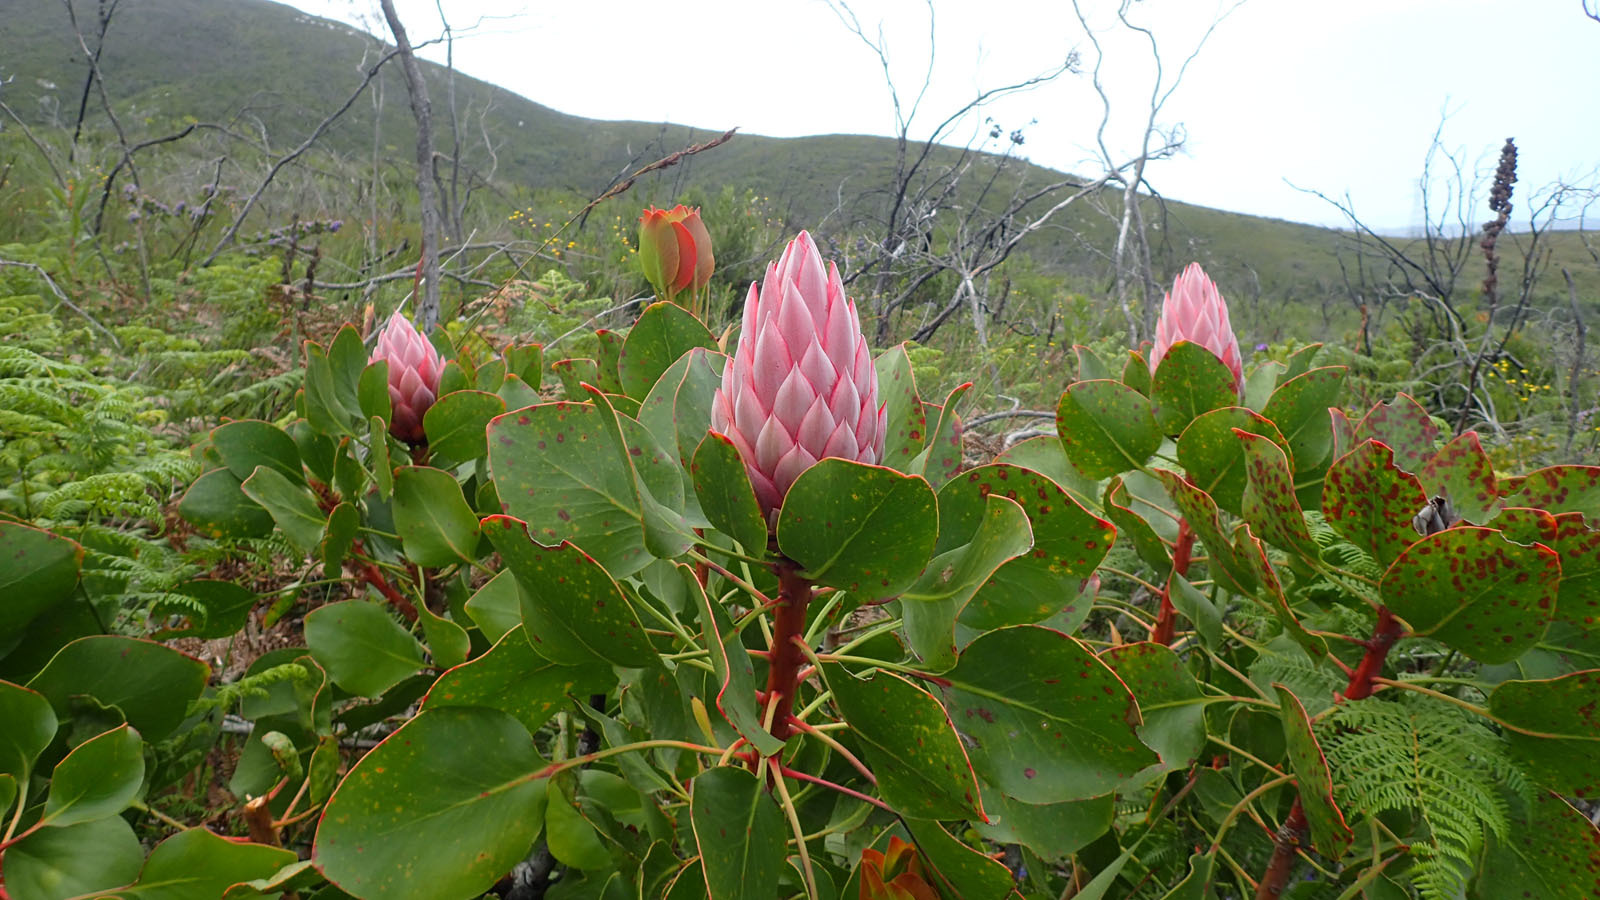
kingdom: Plantae
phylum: Tracheophyta
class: Magnoliopsida
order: Proteales
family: Proteaceae
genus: Protea
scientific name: Protea cynaroides
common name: King protea
